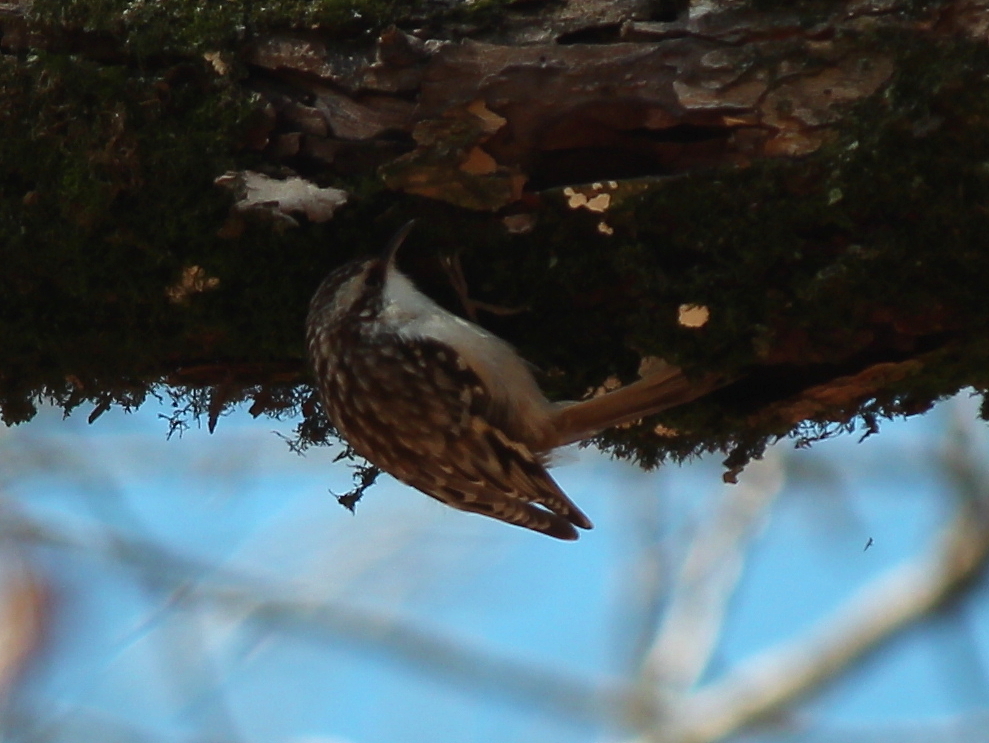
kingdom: Animalia
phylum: Chordata
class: Aves
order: Passeriformes
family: Certhiidae
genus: Certhia
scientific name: Certhia americana
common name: Brown creeper
